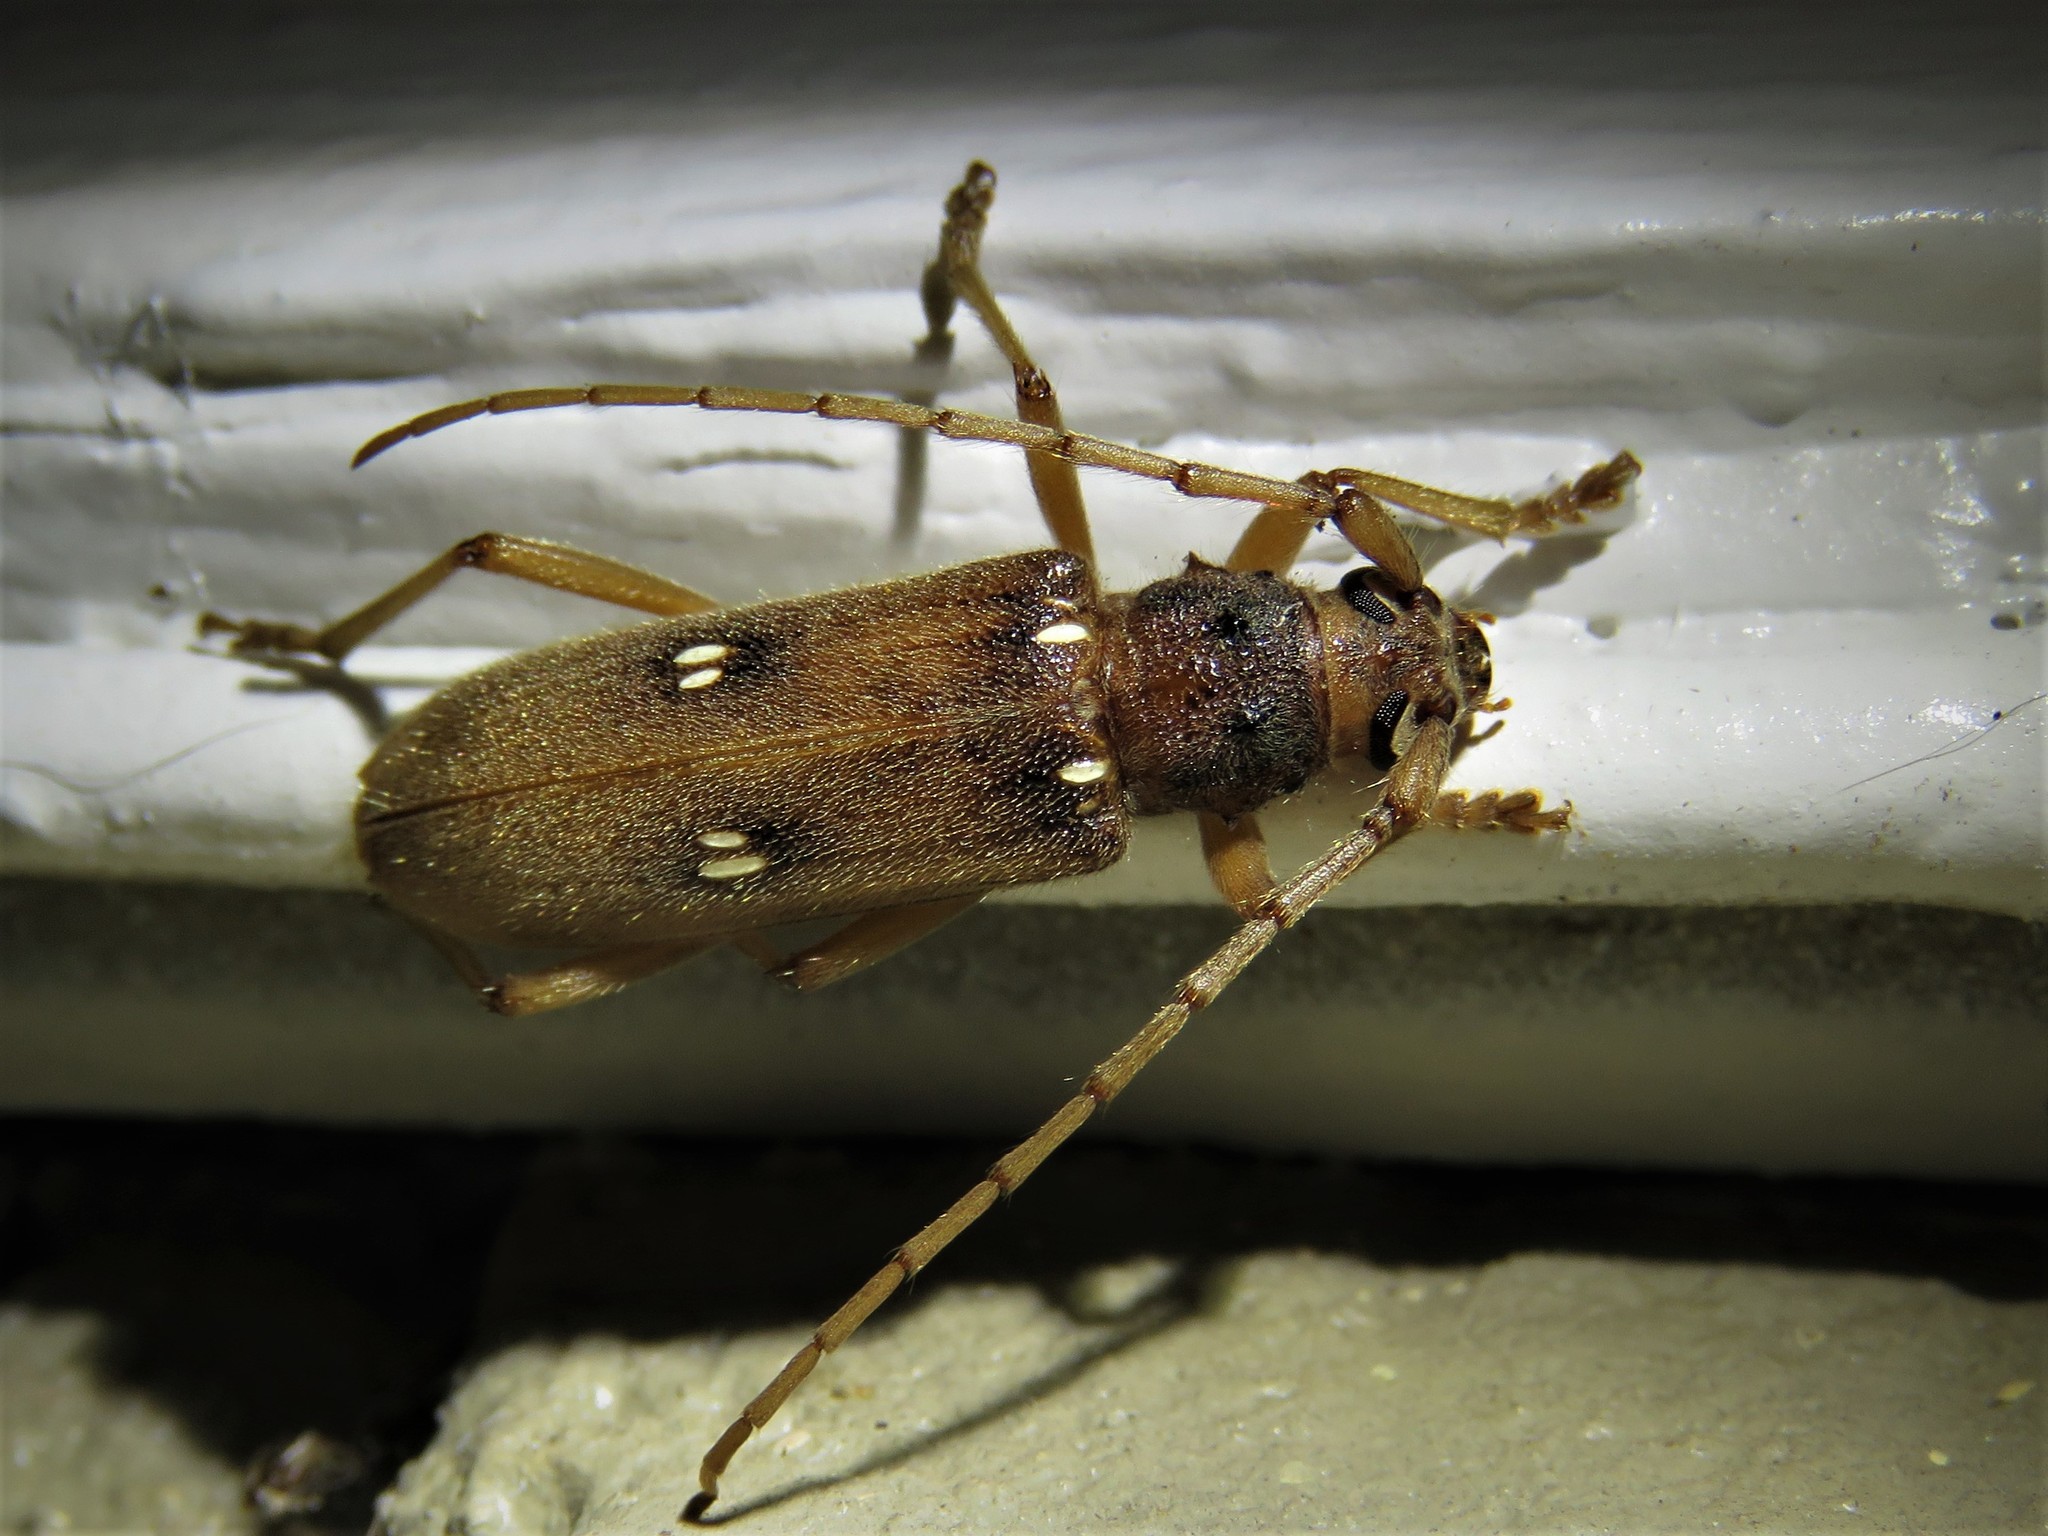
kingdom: Animalia
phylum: Arthropoda
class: Insecta
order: Coleoptera
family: Cerambycidae
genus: Eburia
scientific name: Eburia haldemani
